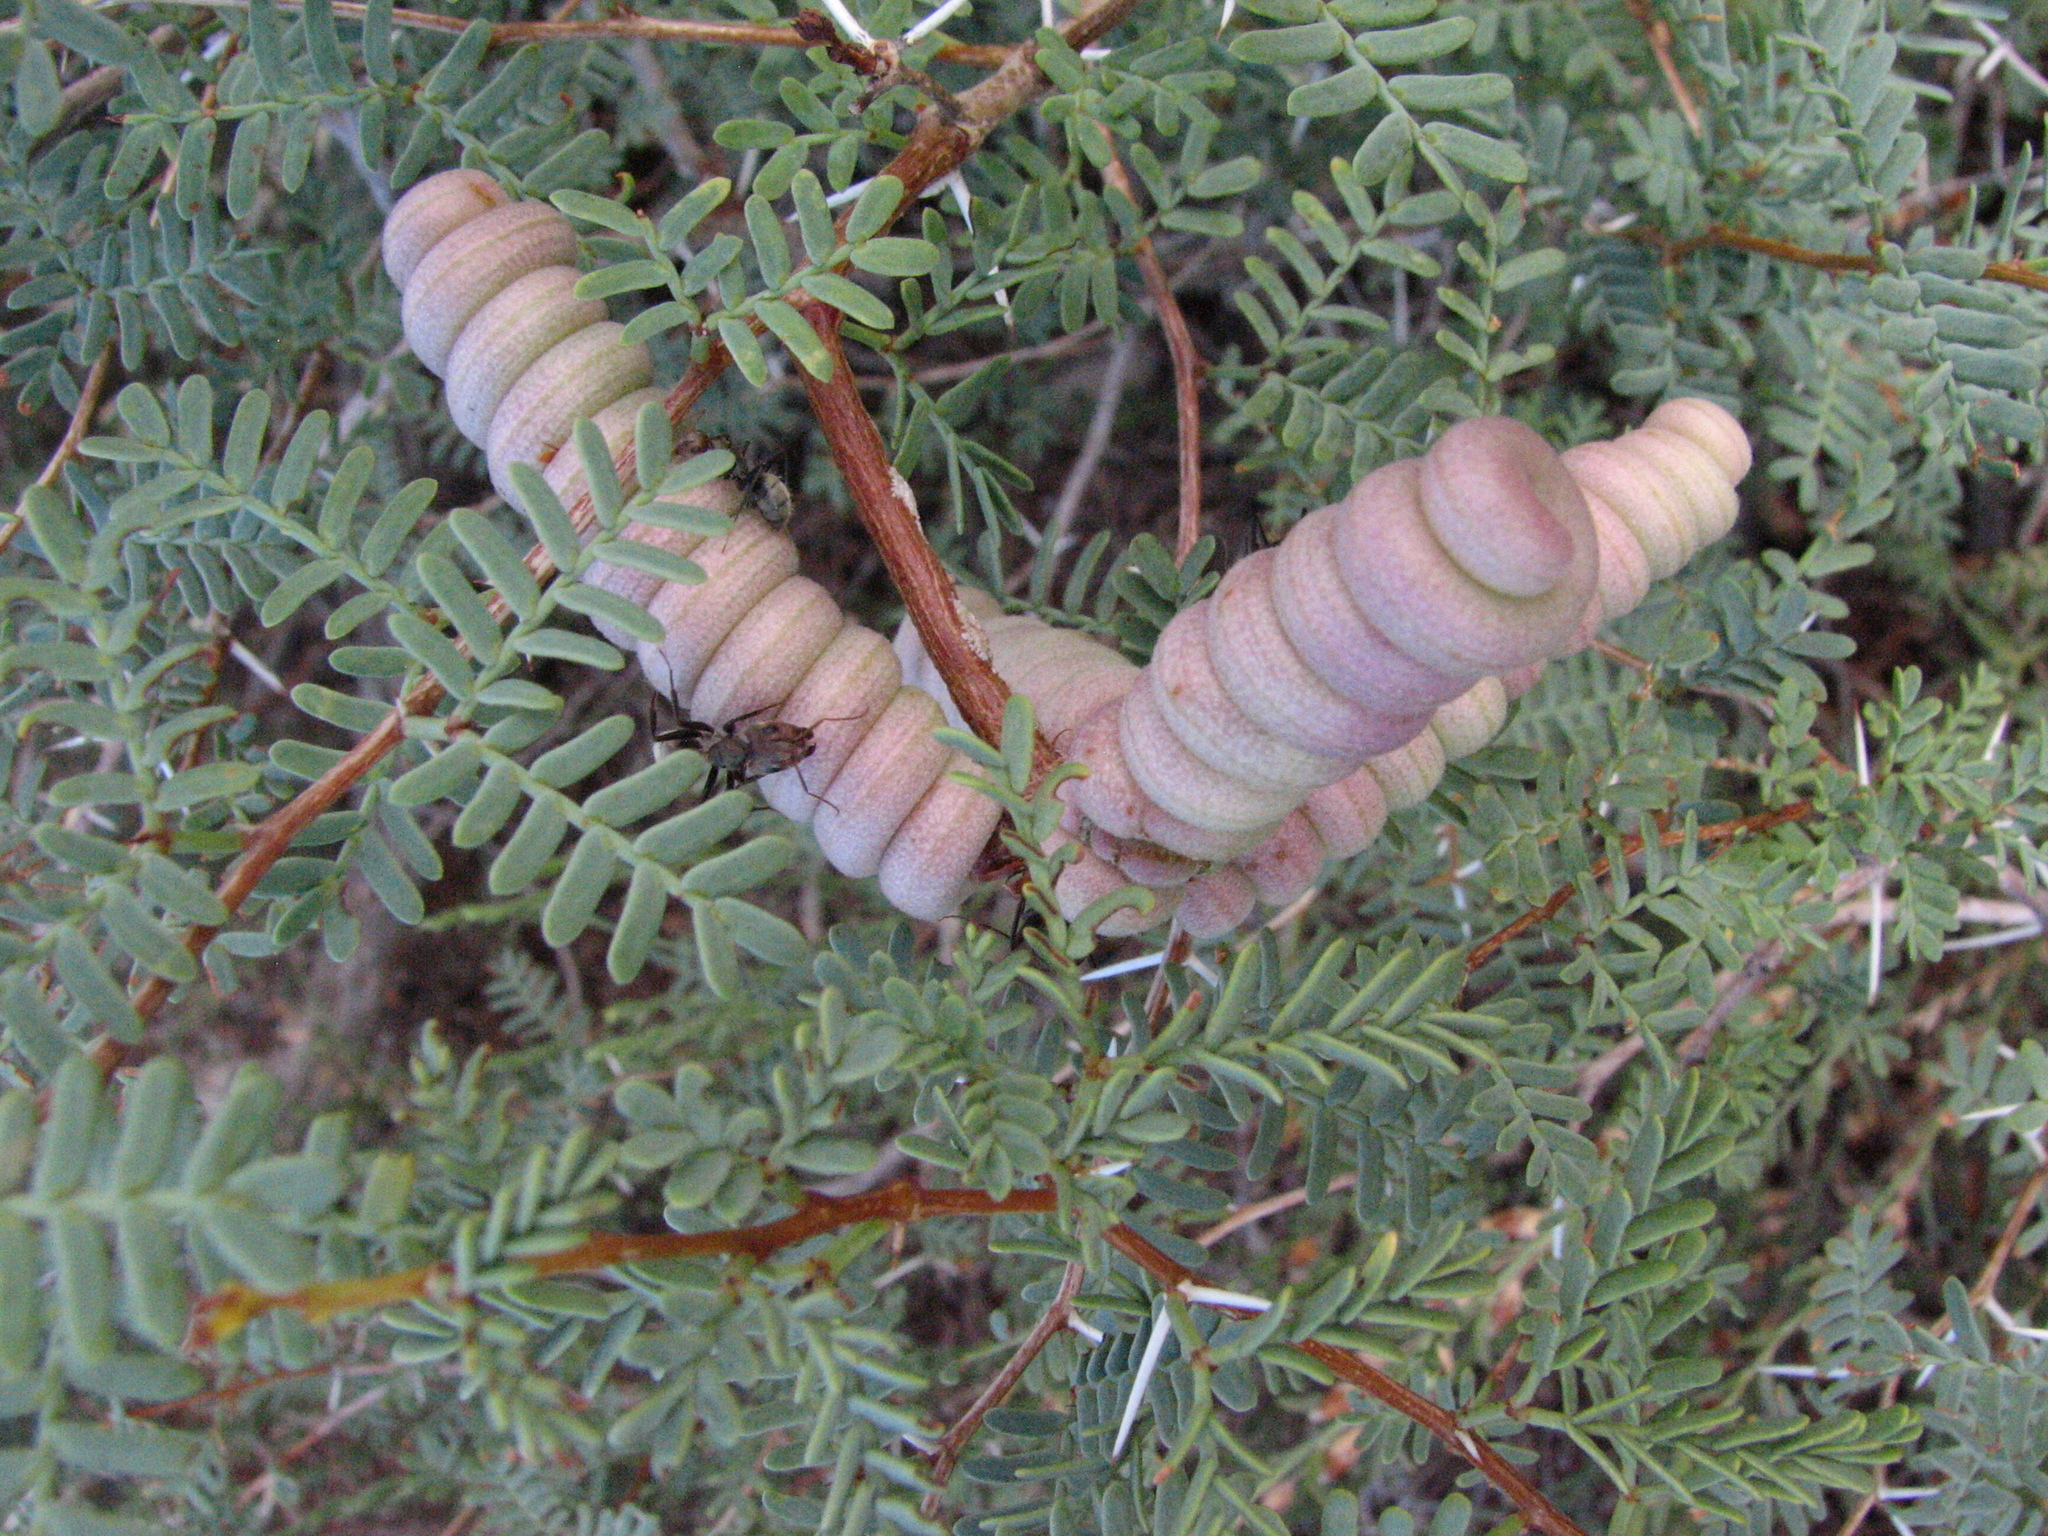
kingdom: Plantae
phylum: Tracheophyta
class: Magnoliopsida
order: Fabales
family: Fabaceae
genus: Prosopis
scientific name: Prosopis strombulifera
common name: Creeping mesquite
